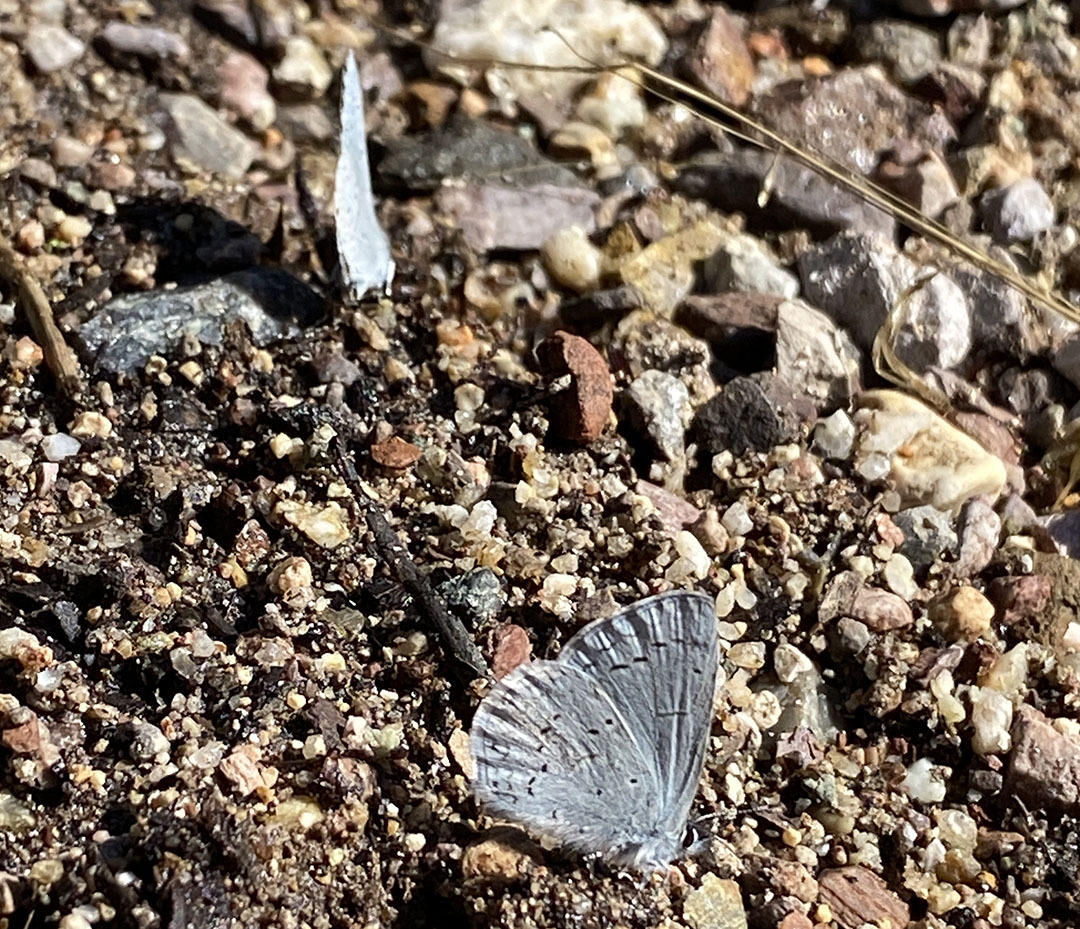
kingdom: Animalia
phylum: Arthropoda
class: Insecta
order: Lepidoptera
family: Lycaenidae
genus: Celastrina
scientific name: Celastrina ladon
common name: Spring azure
